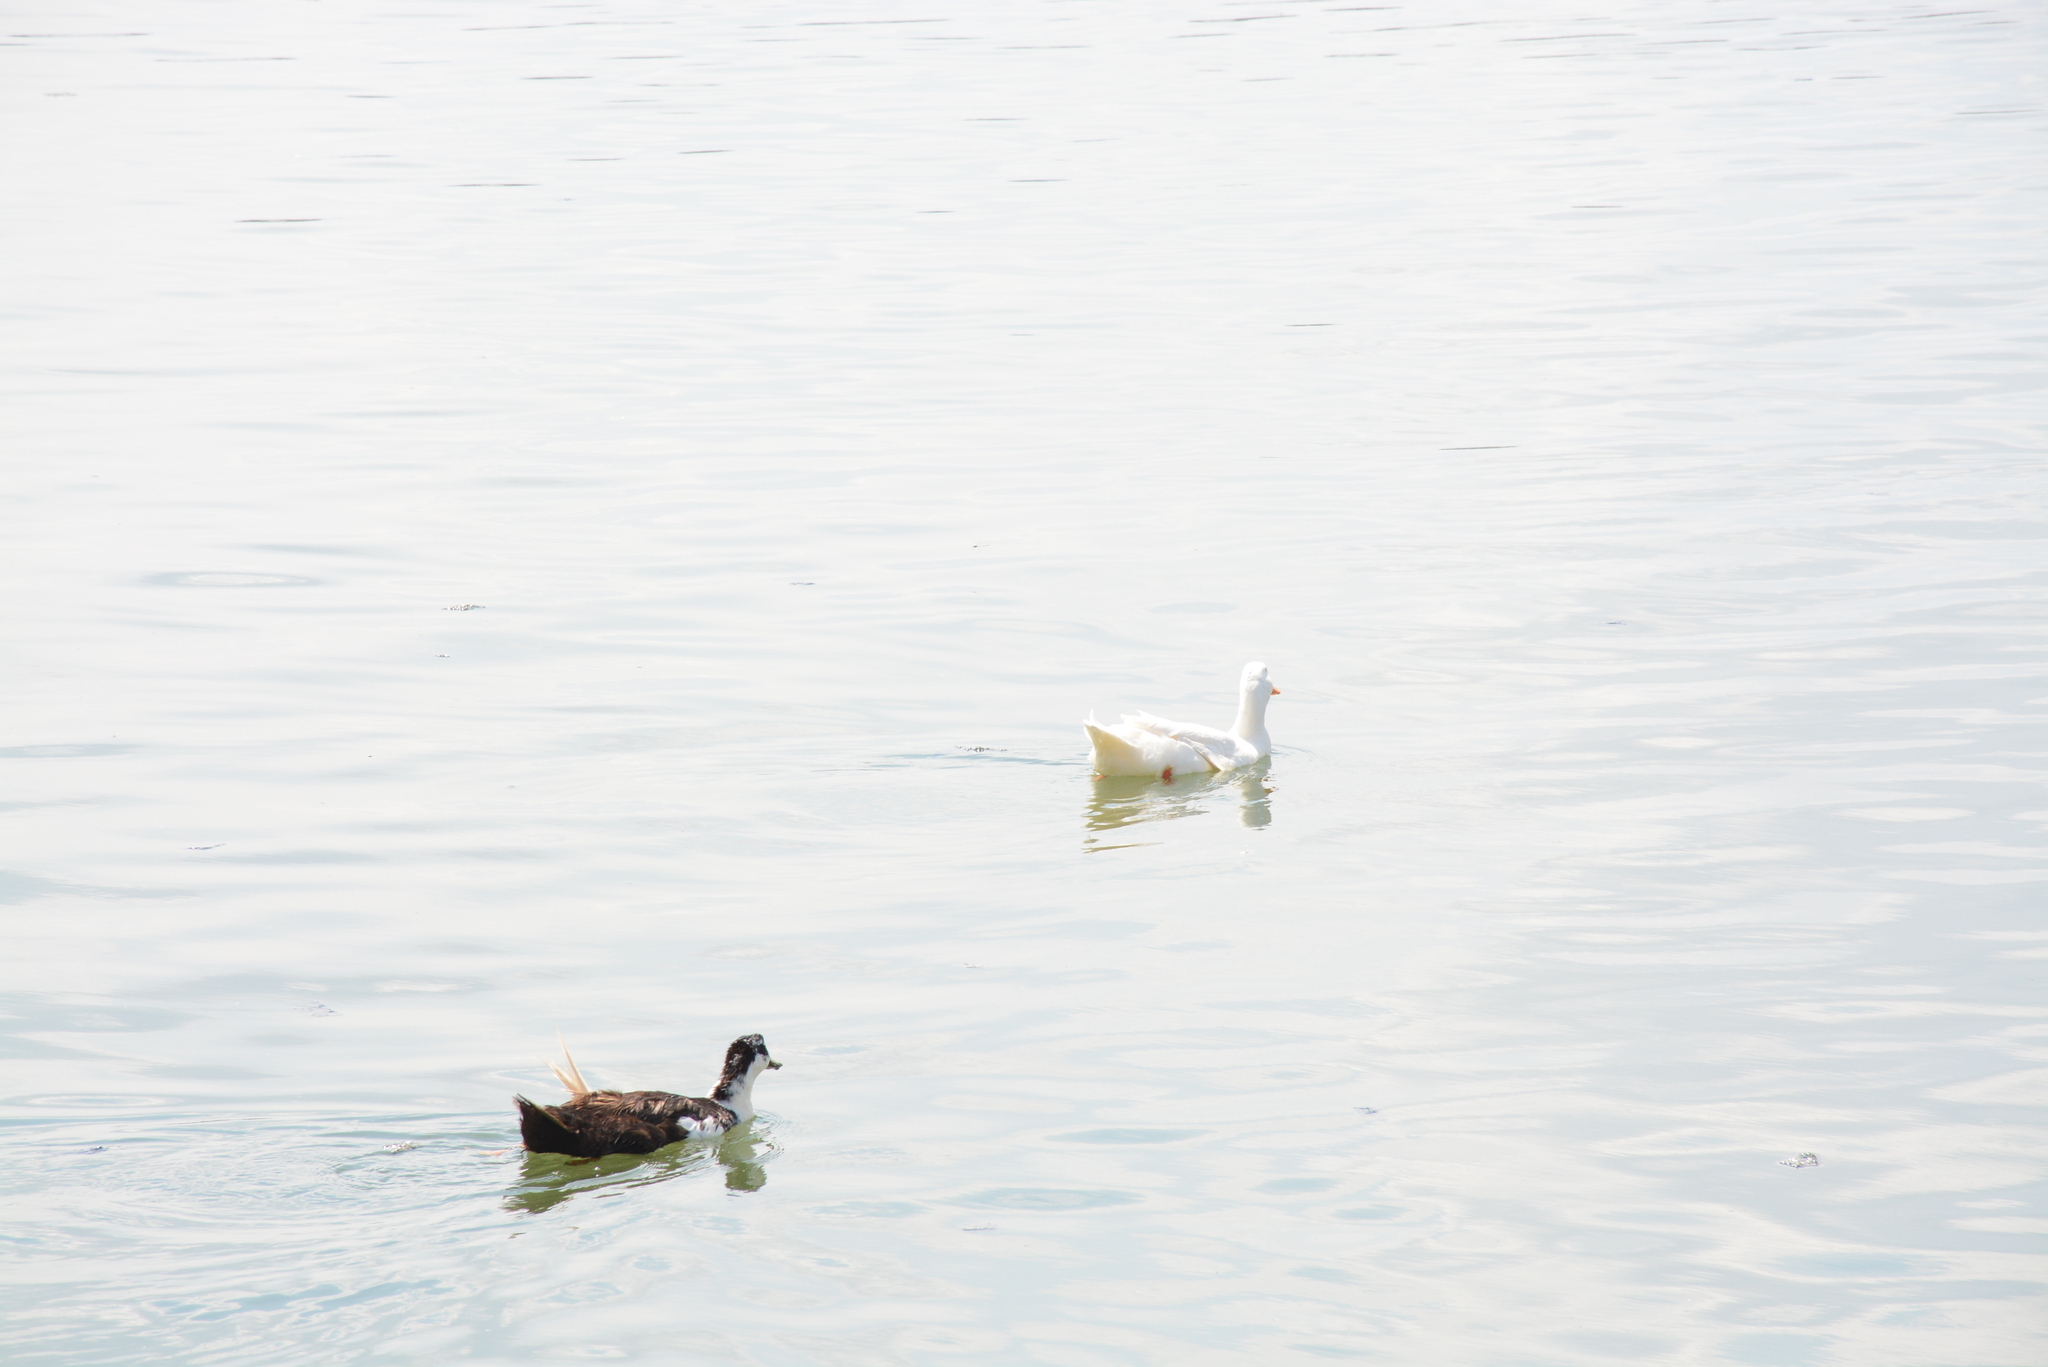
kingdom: Animalia
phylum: Chordata
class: Aves
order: Anseriformes
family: Anatidae
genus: Anas
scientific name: Anas platyrhynchos
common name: Mallard
